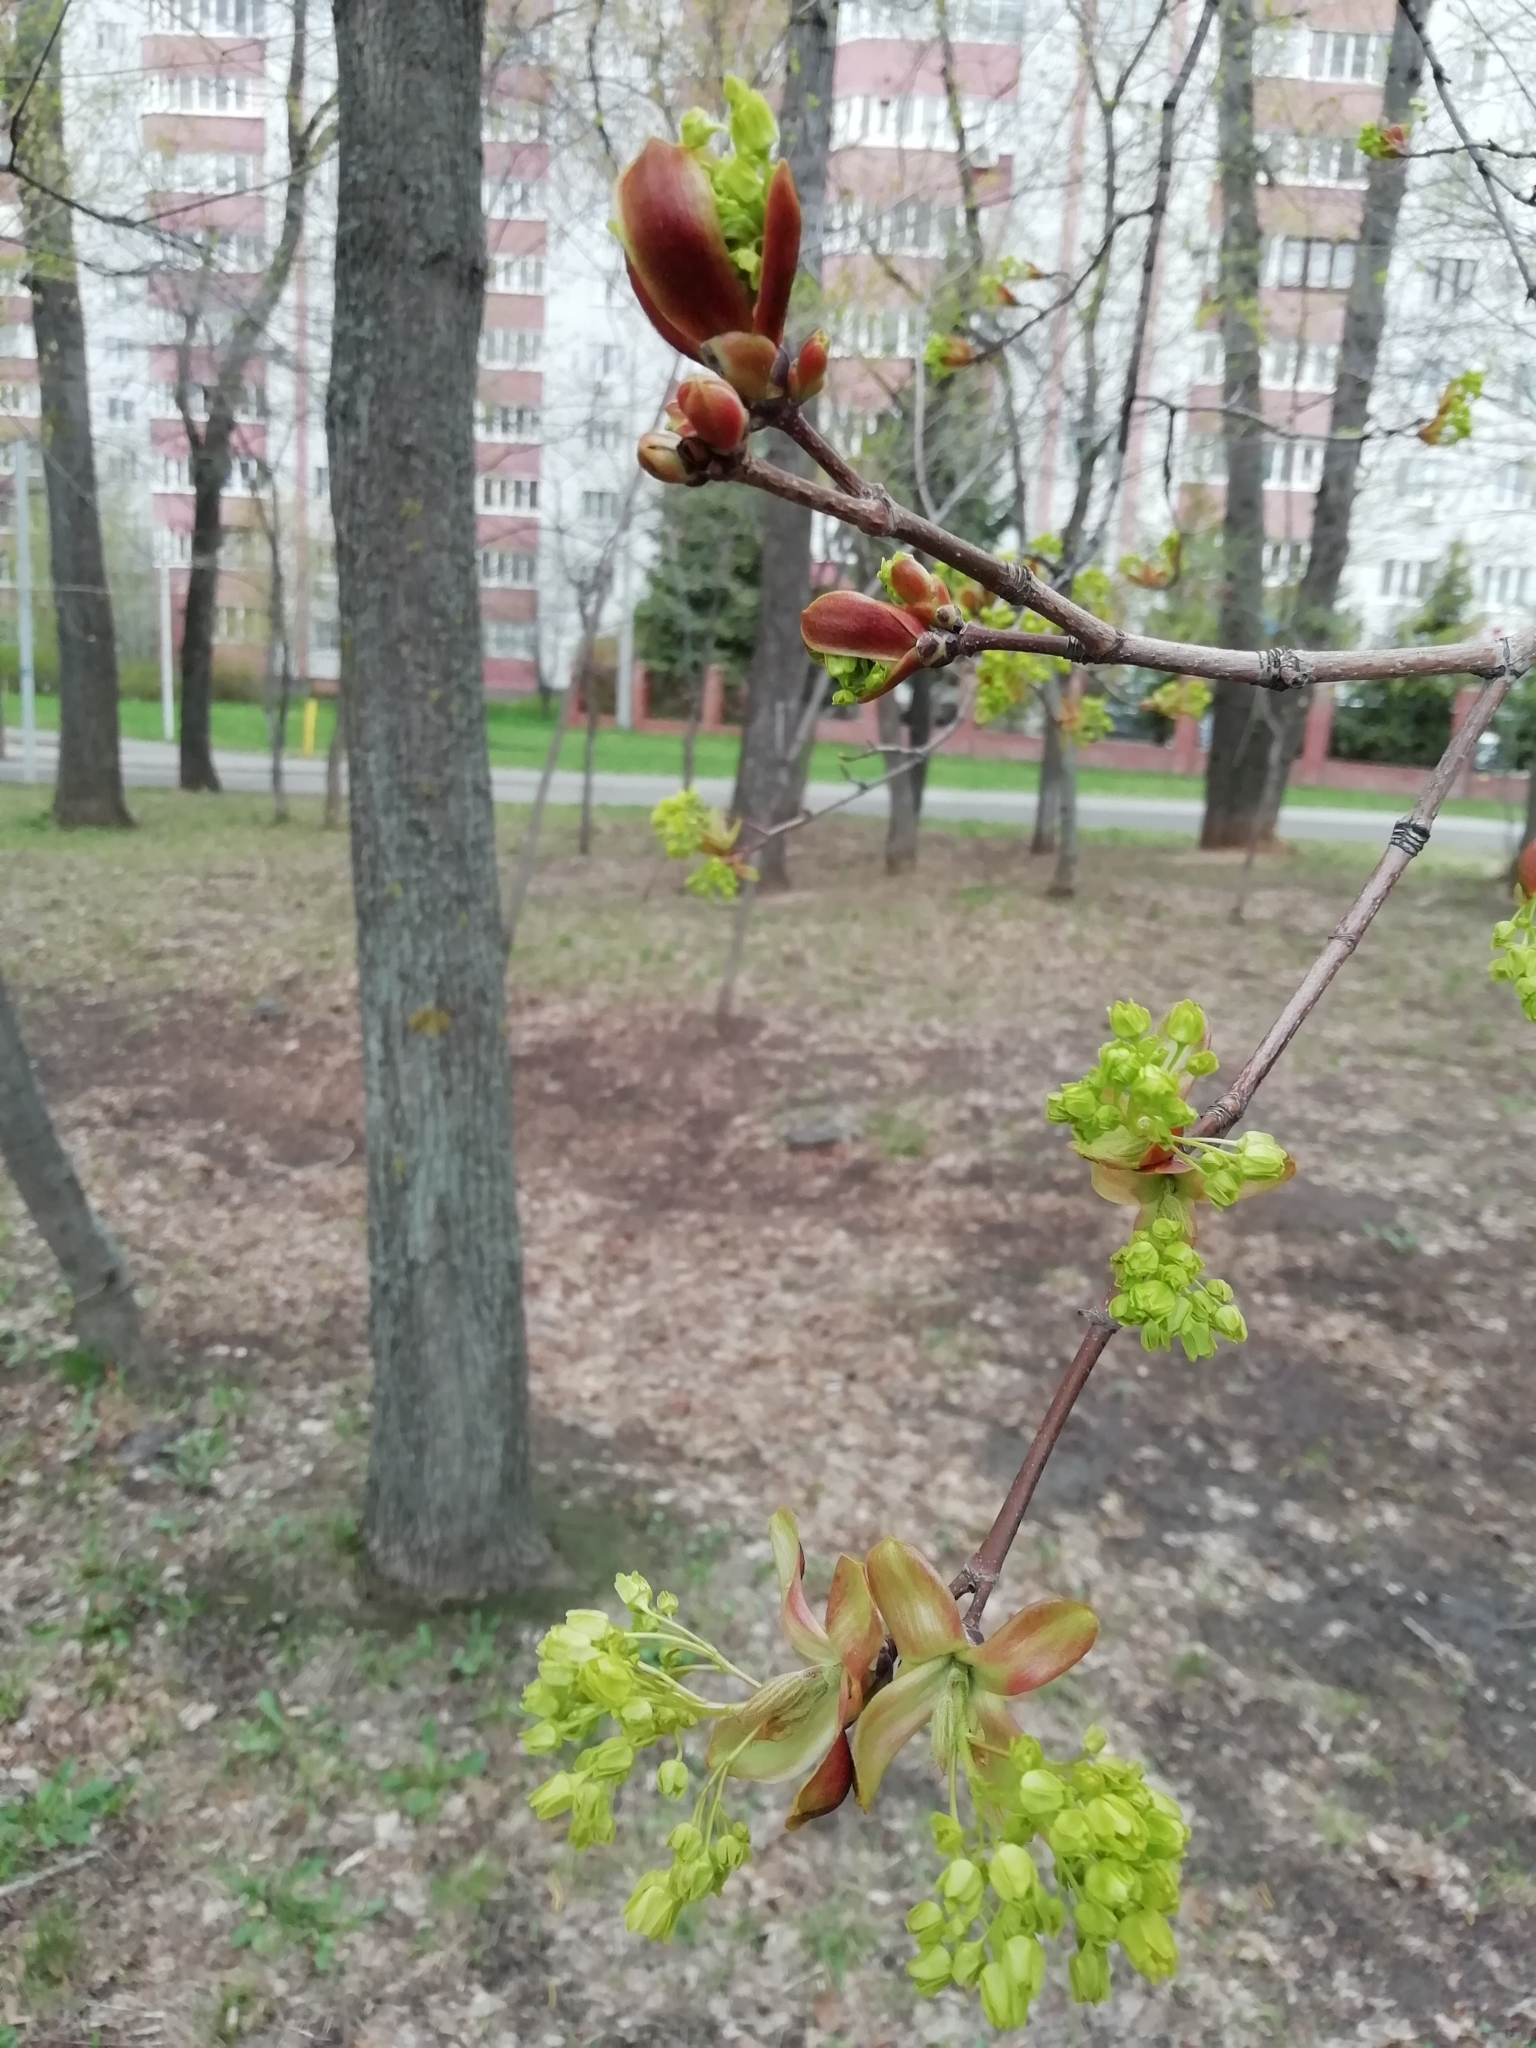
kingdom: Plantae
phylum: Tracheophyta
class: Magnoliopsida
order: Sapindales
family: Sapindaceae
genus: Acer
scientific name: Acer platanoides
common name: Norway maple
